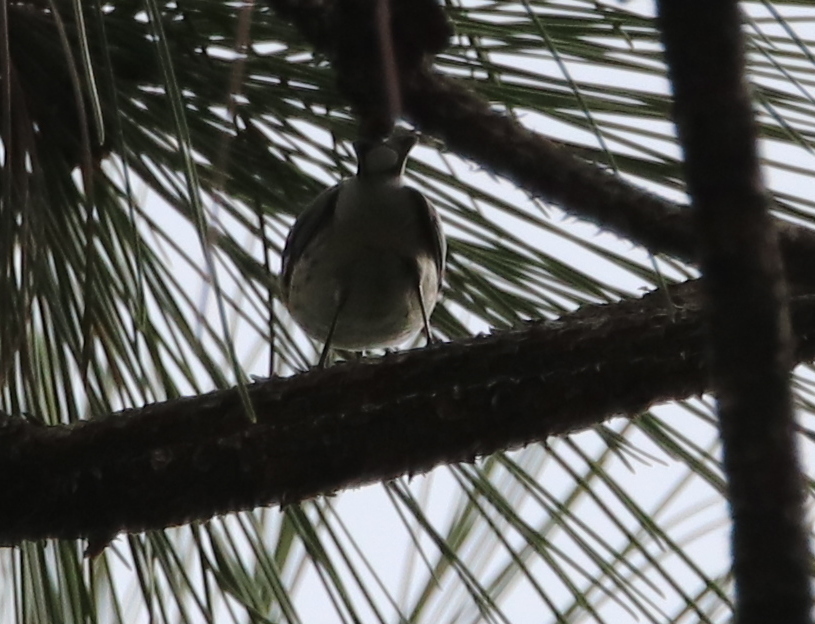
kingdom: Animalia
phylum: Chordata
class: Aves
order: Passeriformes
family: Parulidae
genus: Setophaga
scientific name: Setophaga coronata
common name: Myrtle warbler
